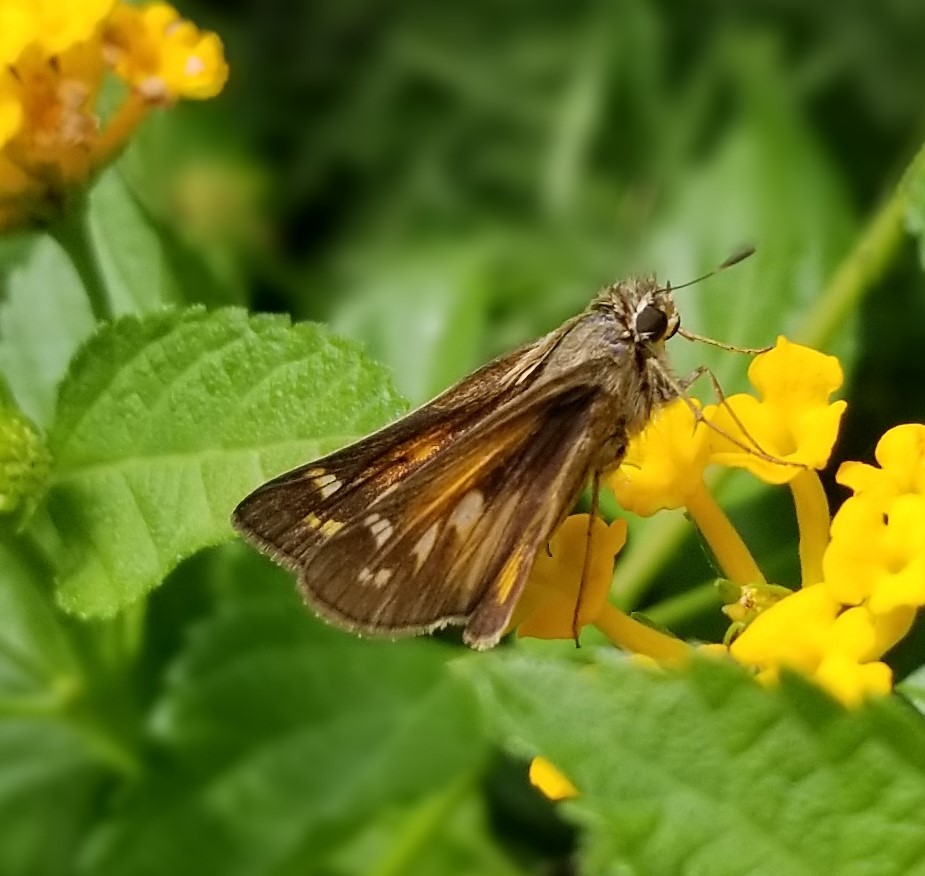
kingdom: Animalia
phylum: Arthropoda
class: Insecta
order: Lepidoptera
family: Hesperiidae
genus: Atalopedes
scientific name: Atalopedes
